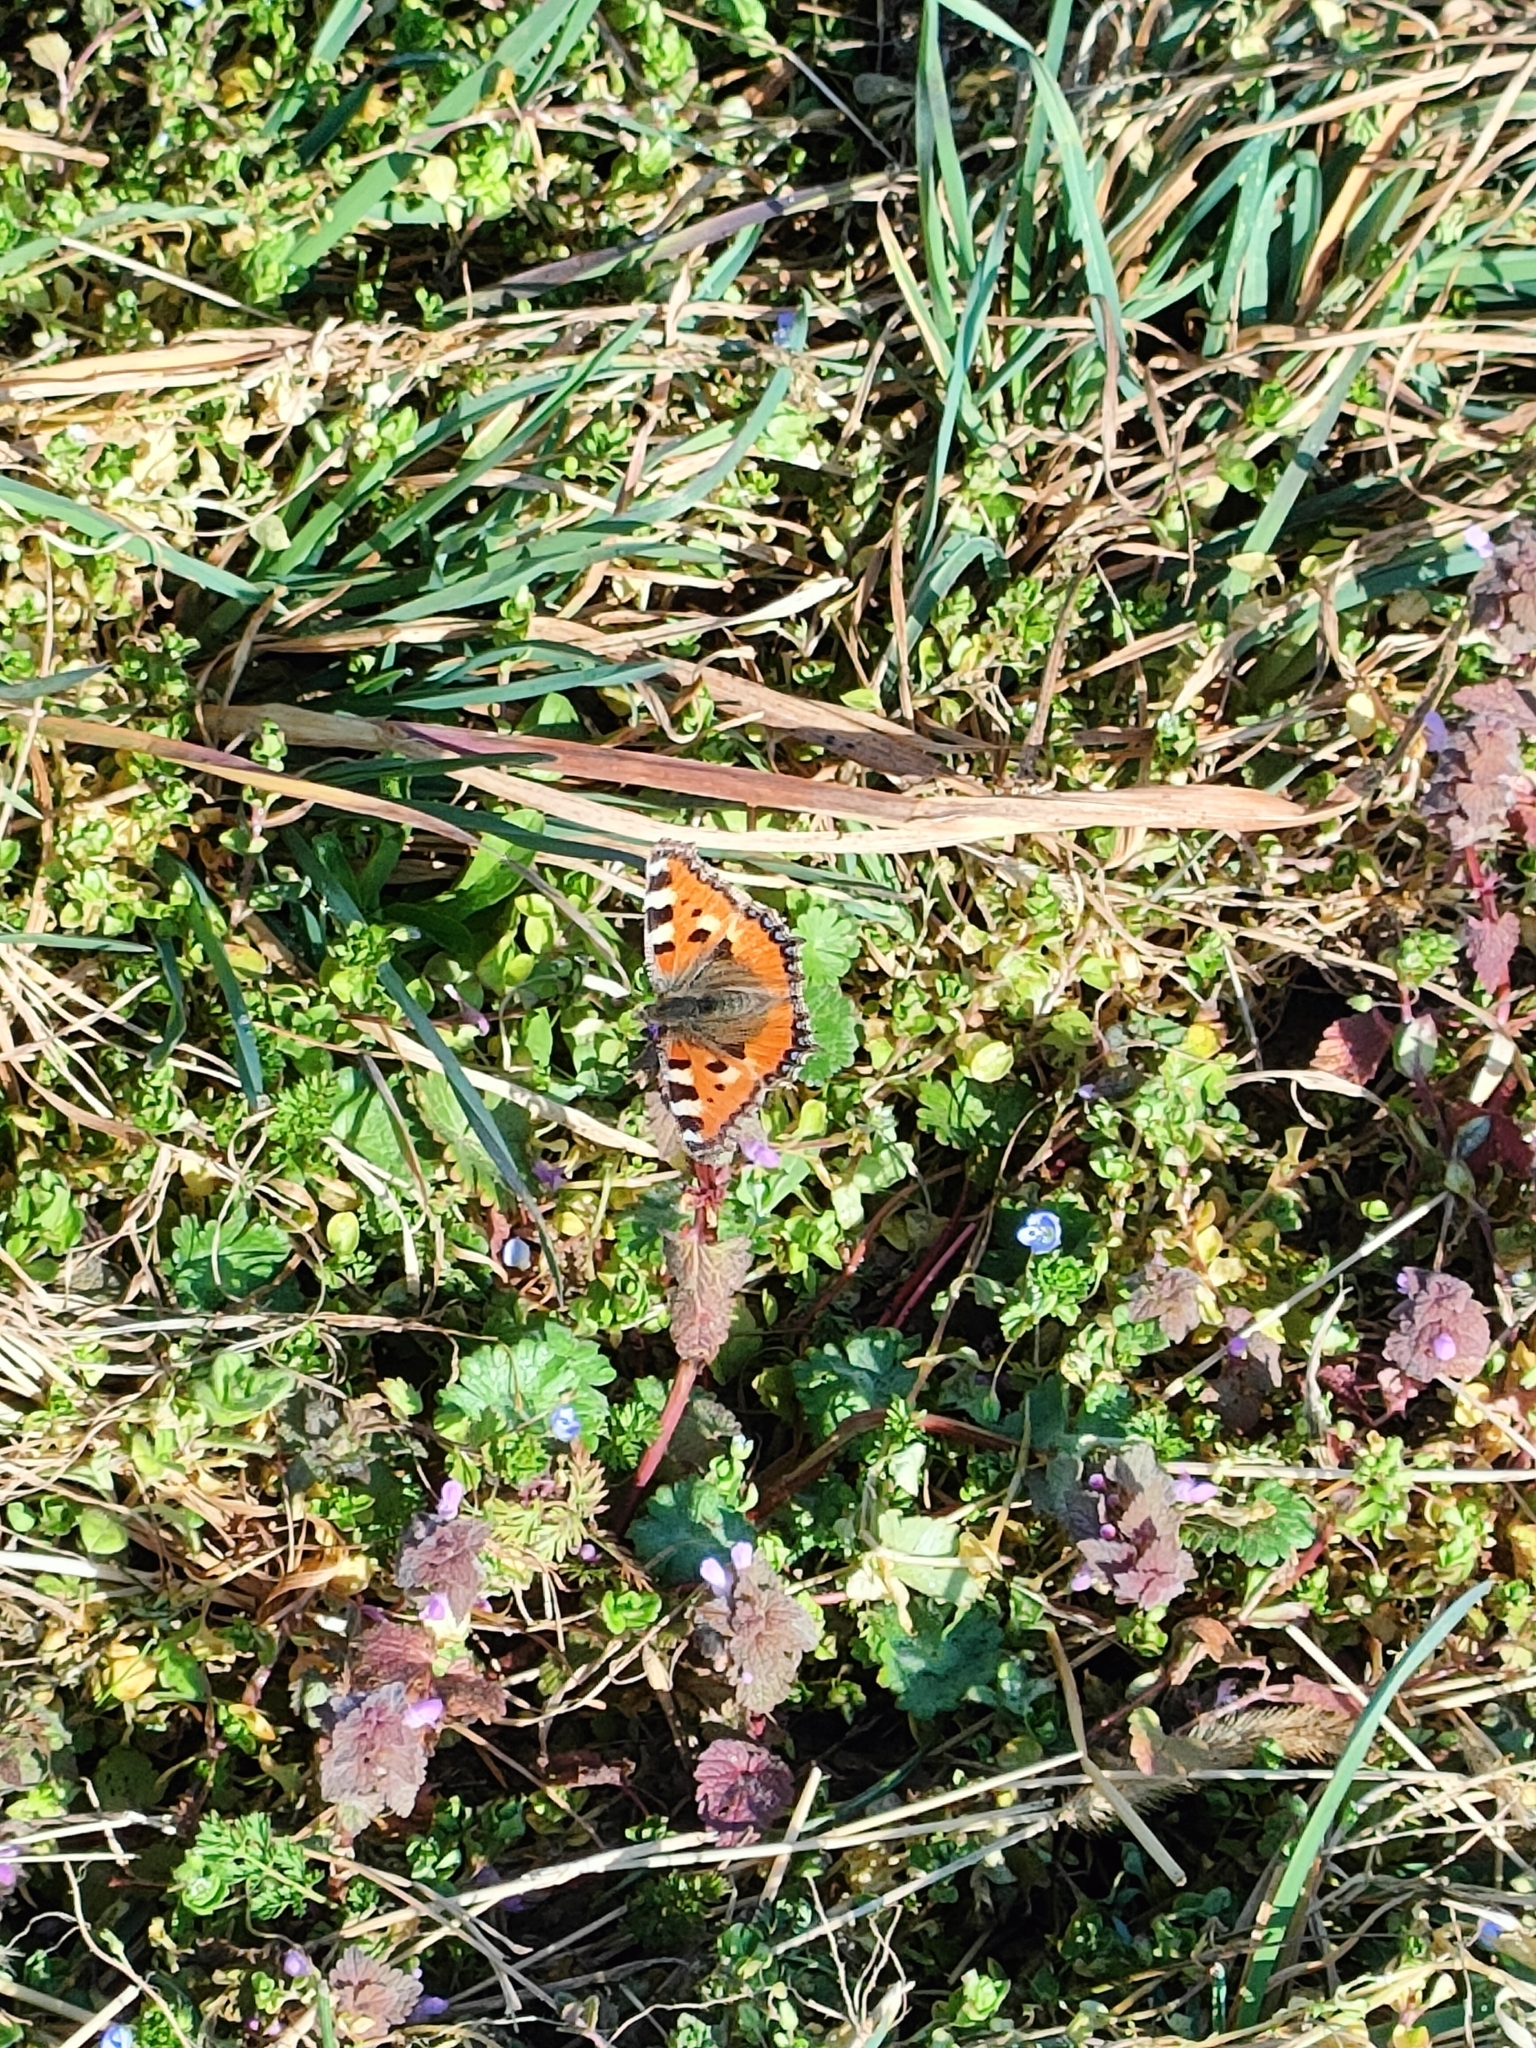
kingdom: Animalia
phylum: Arthropoda
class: Insecta
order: Lepidoptera
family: Nymphalidae
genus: Aglais
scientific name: Aglais urticae
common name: Small tortoiseshell
